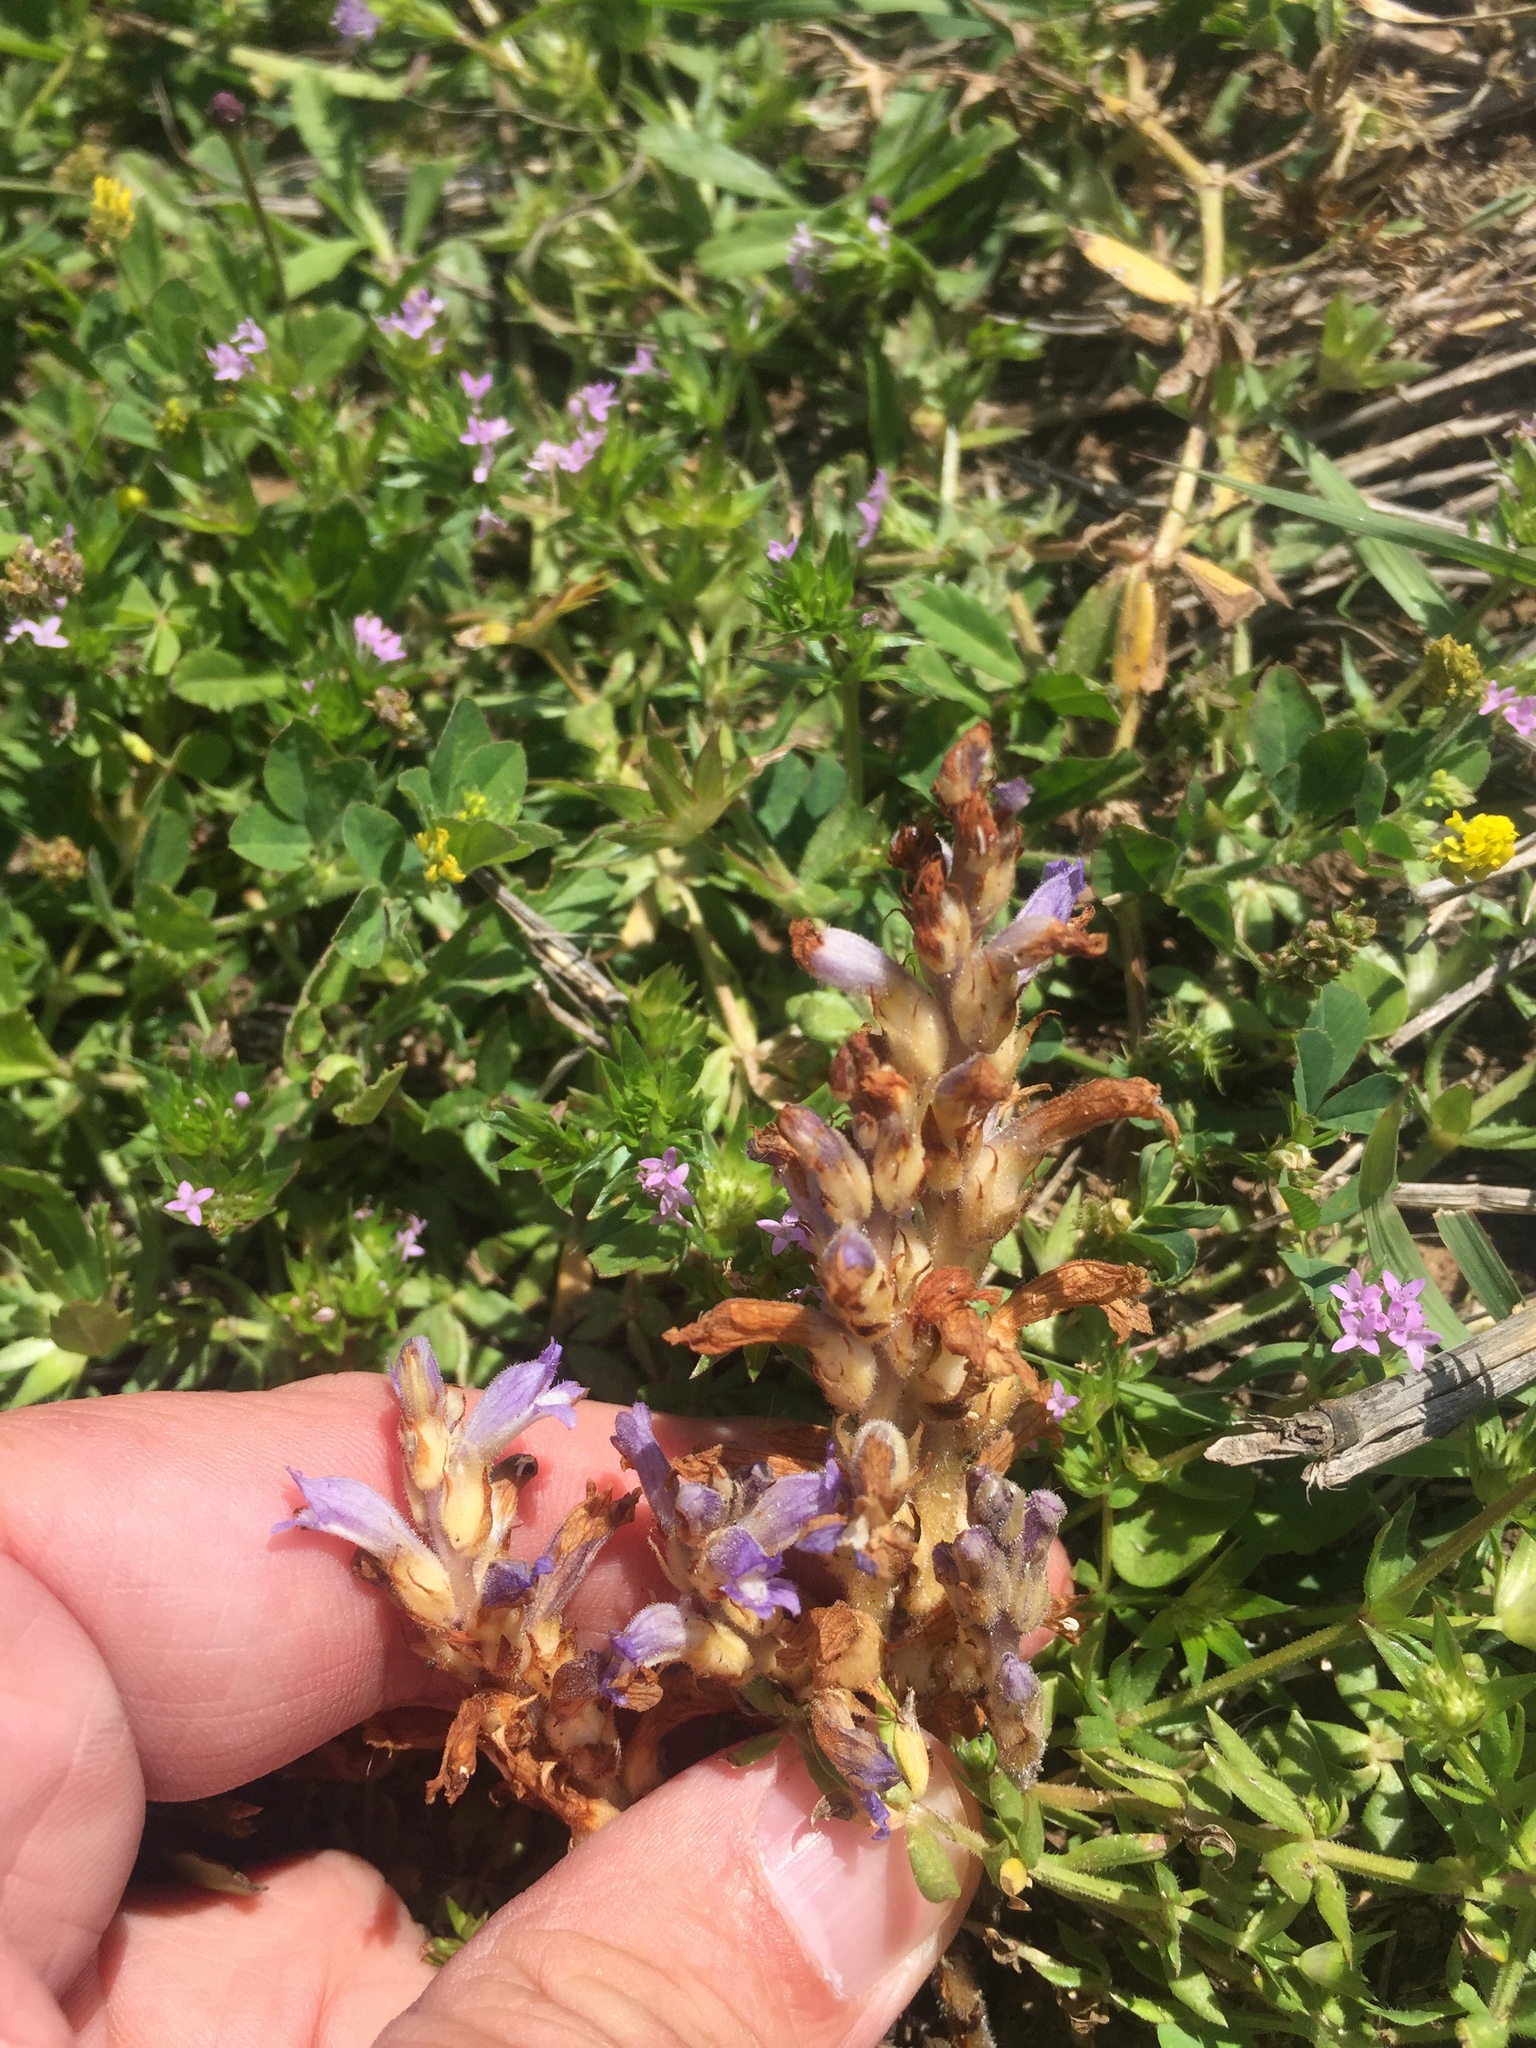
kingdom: Plantae
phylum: Tracheophyta
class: Magnoliopsida
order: Lamiales
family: Orobanchaceae
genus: Phelipanche
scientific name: Phelipanche ramosa
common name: Branched broomrape
